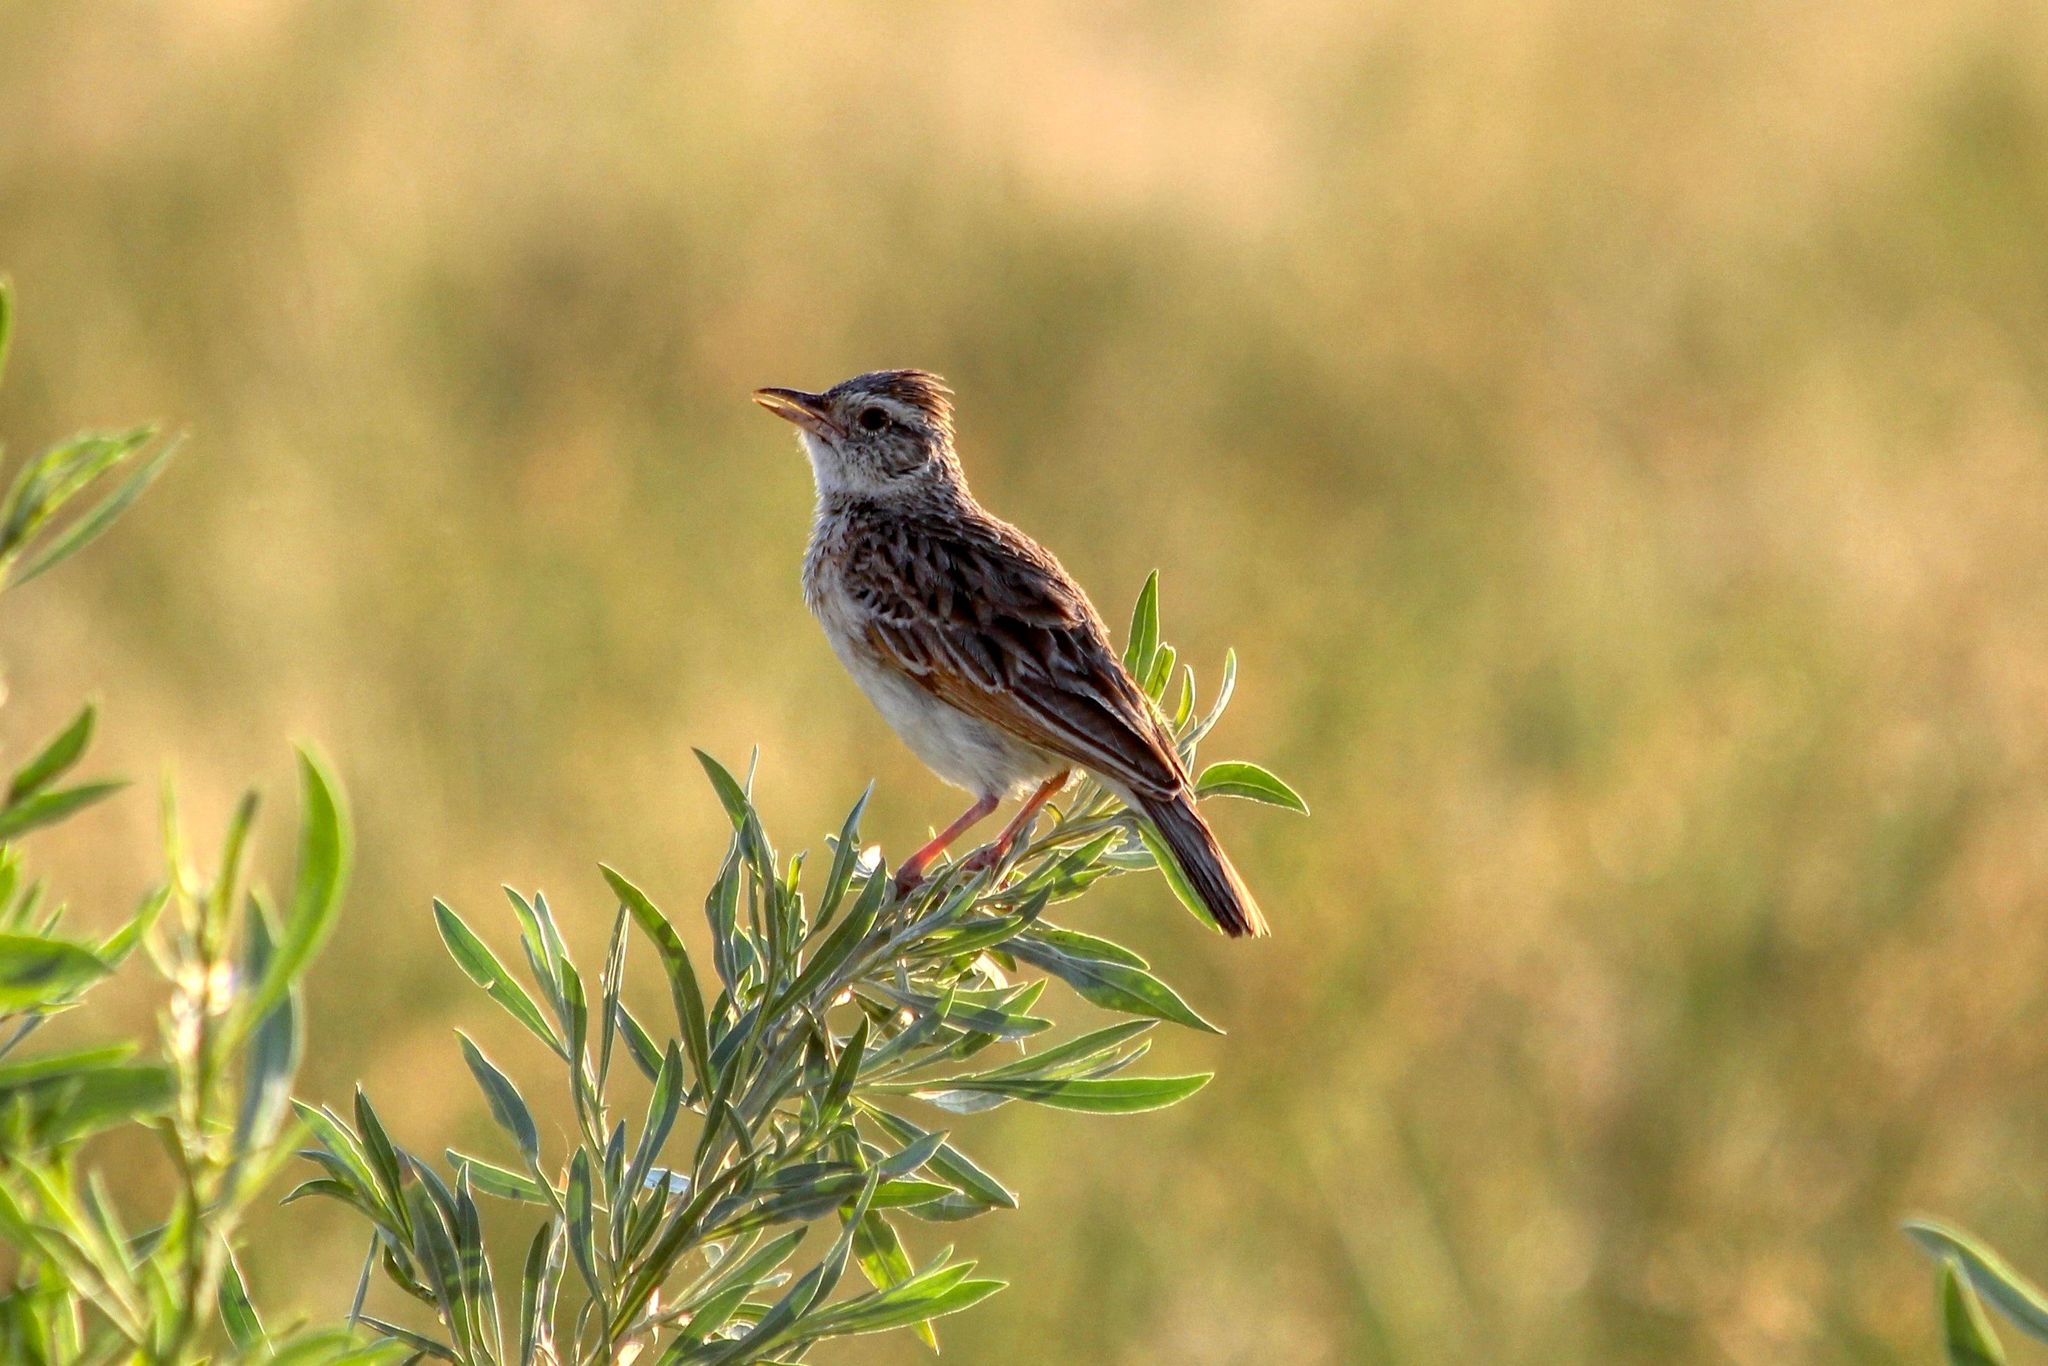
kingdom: Animalia
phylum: Chordata
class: Aves
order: Passeriformes
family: Alaudidae
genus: Mirafra
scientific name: Mirafra africana
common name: Rufous-naped lark
